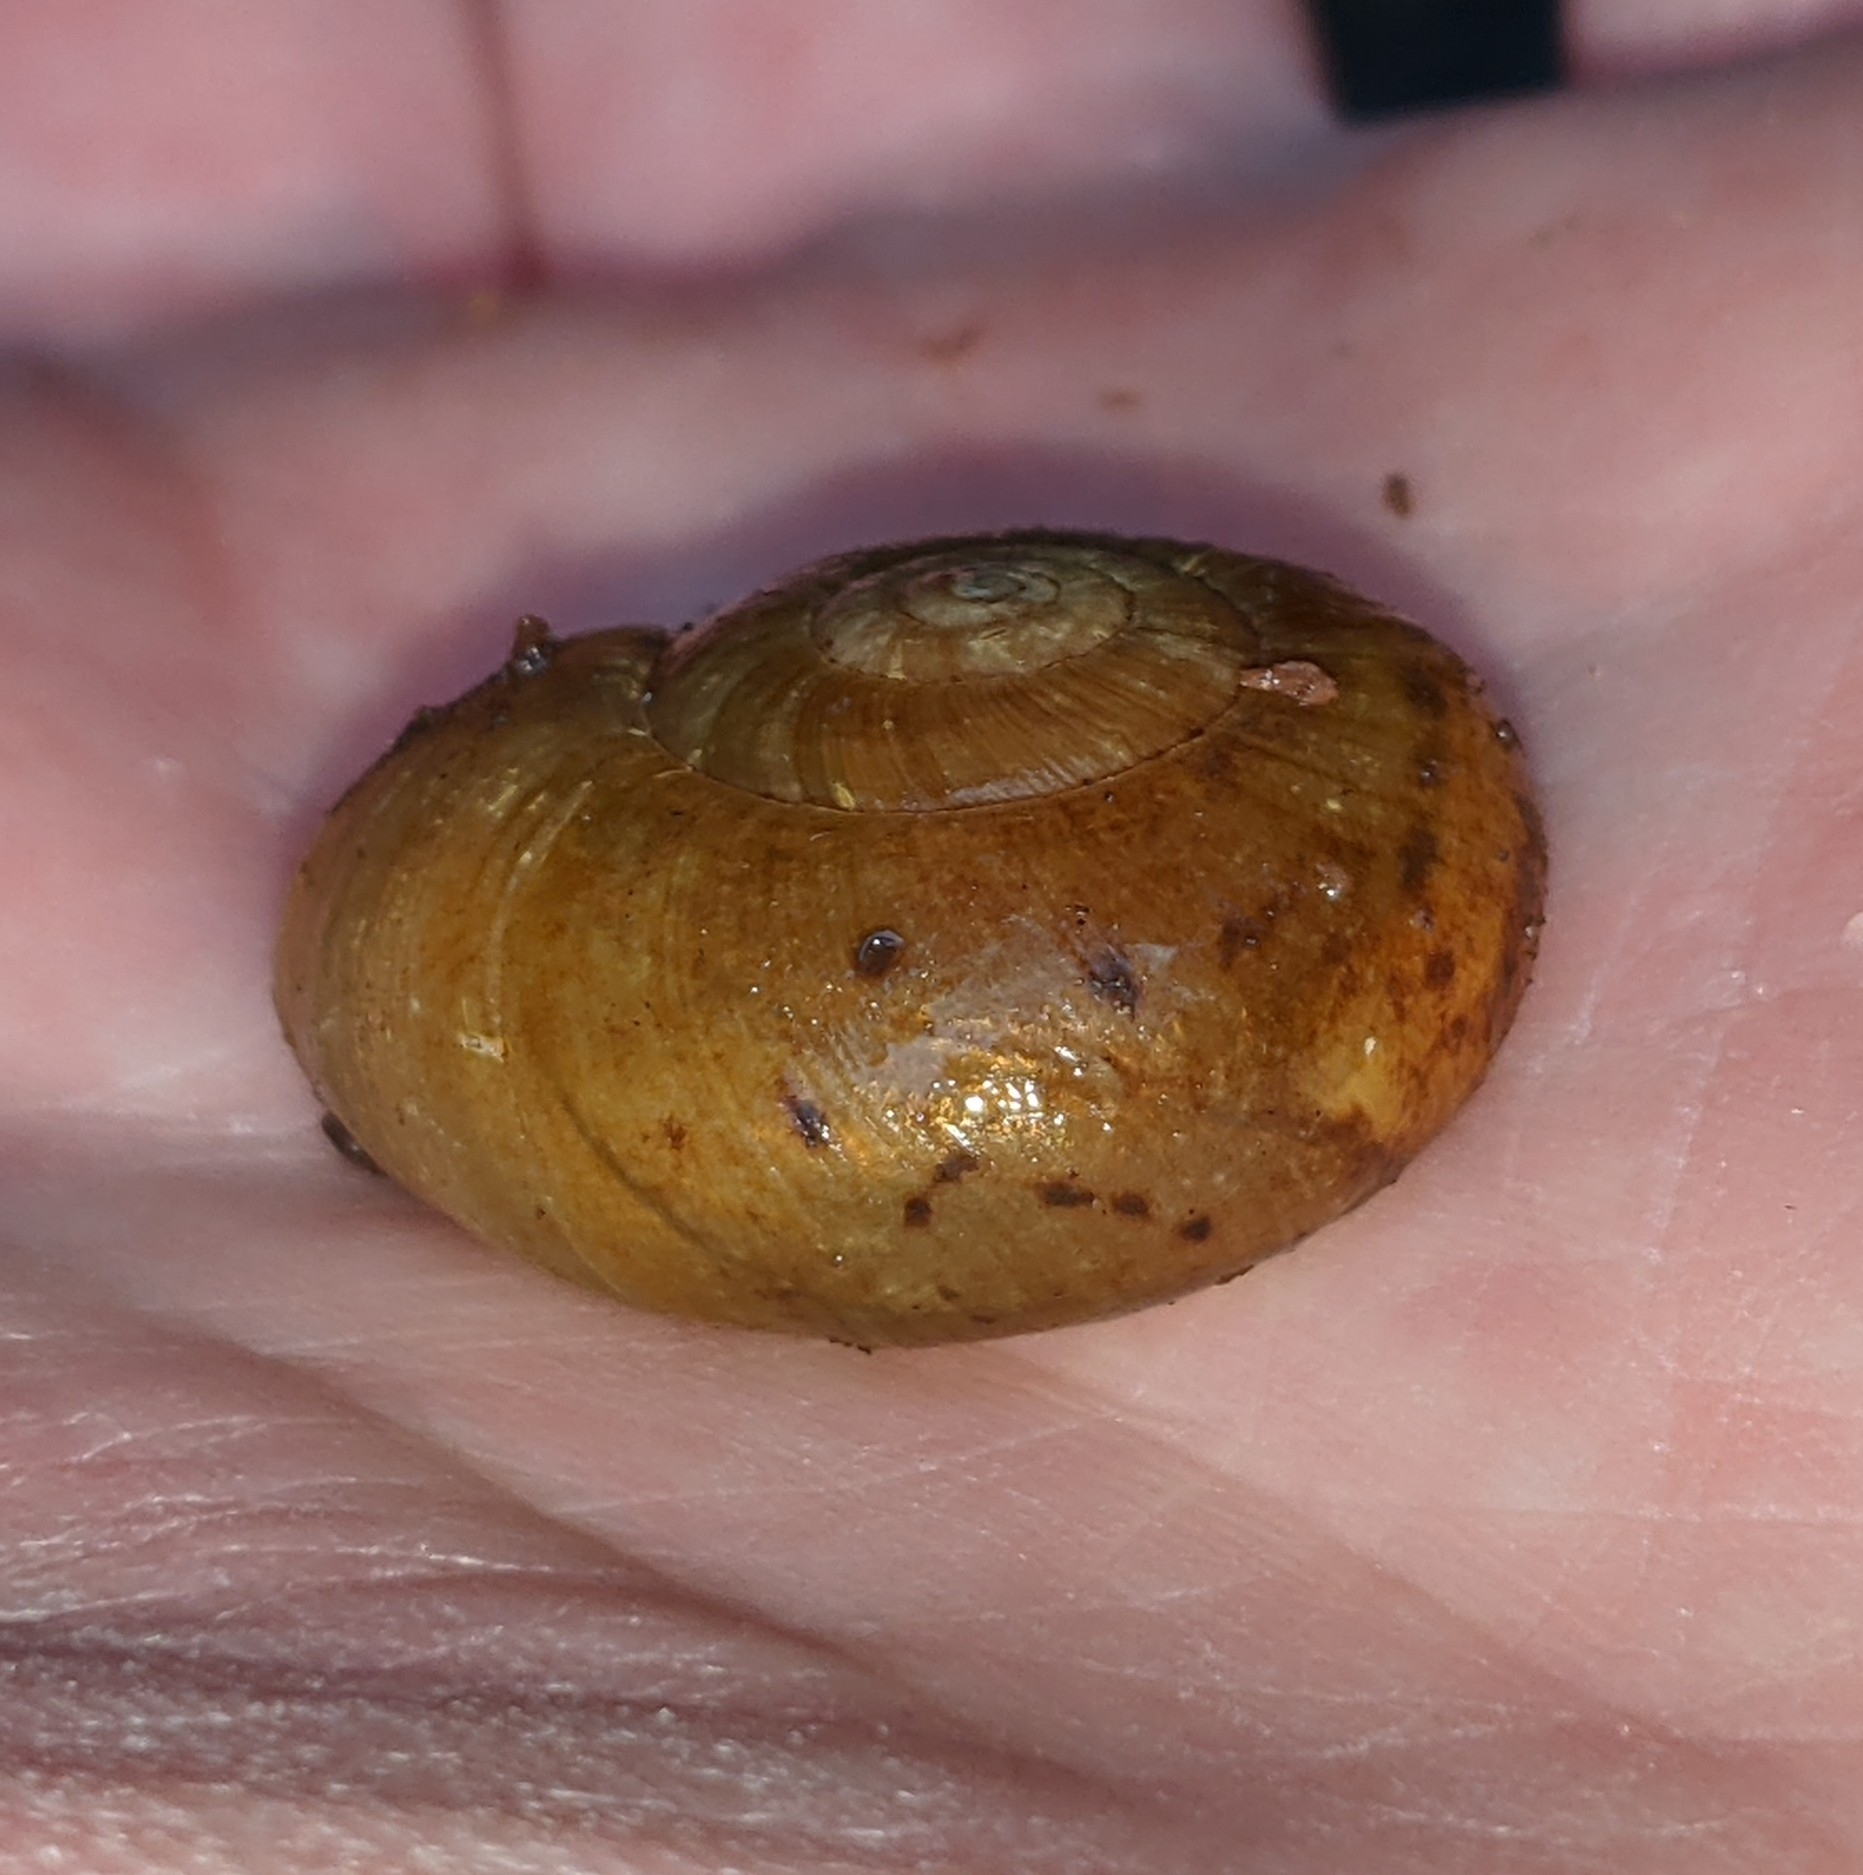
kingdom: Animalia
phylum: Mollusca
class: Gastropoda
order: Stylommatophora
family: Haplotrematidae
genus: Haplotrema
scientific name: Haplotrema vancouverense
